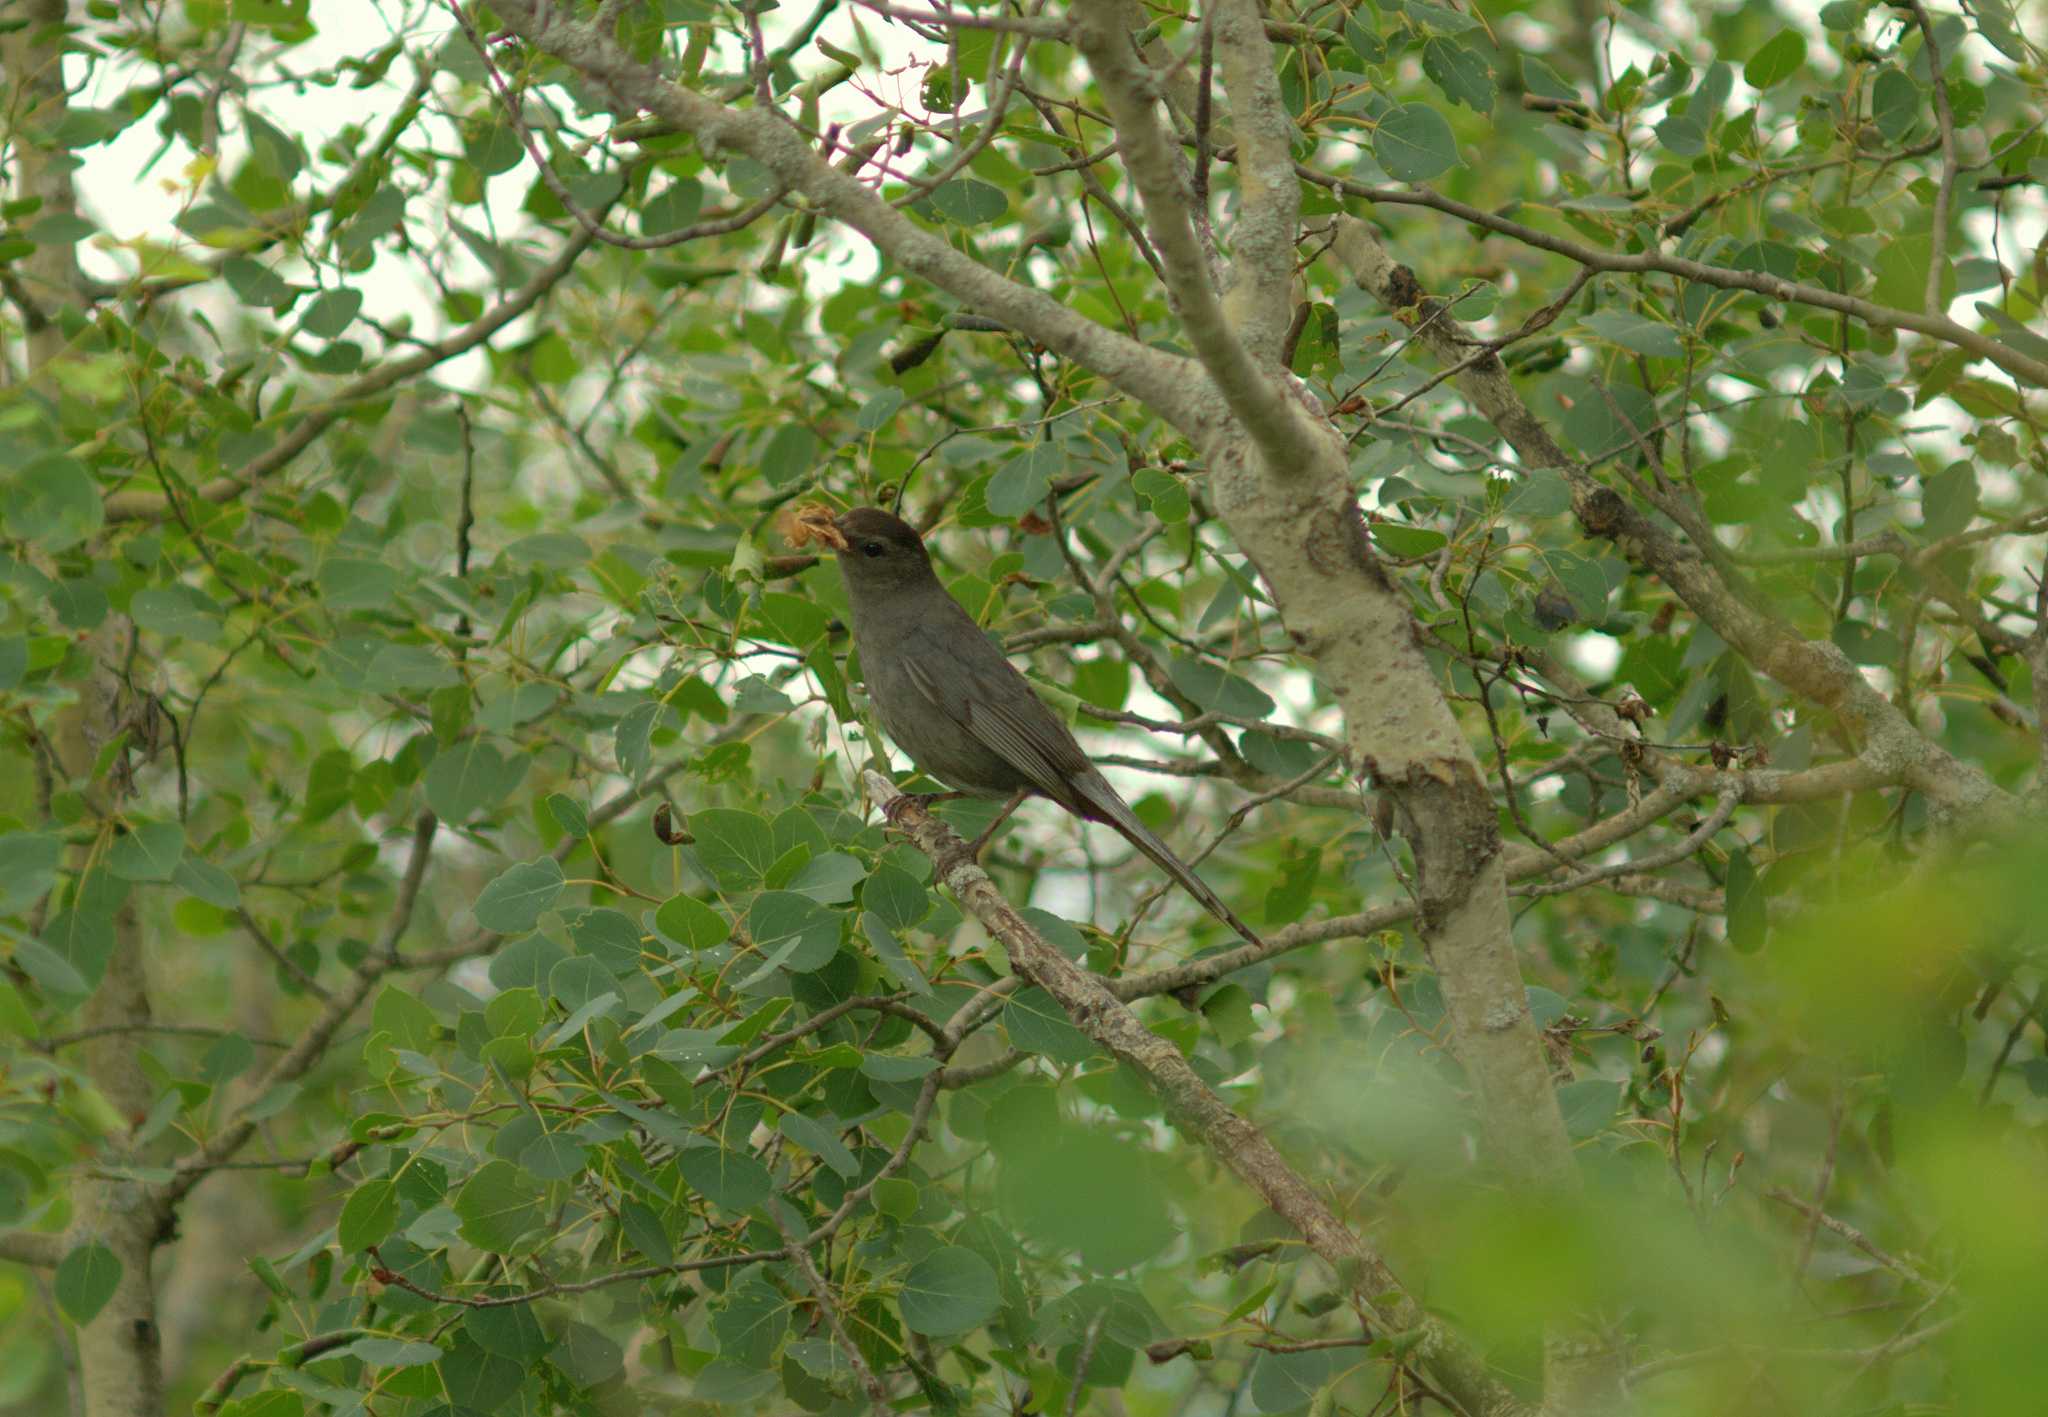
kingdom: Animalia
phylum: Chordata
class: Aves
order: Passeriformes
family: Mimidae
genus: Dumetella
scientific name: Dumetella carolinensis
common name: Gray catbird
